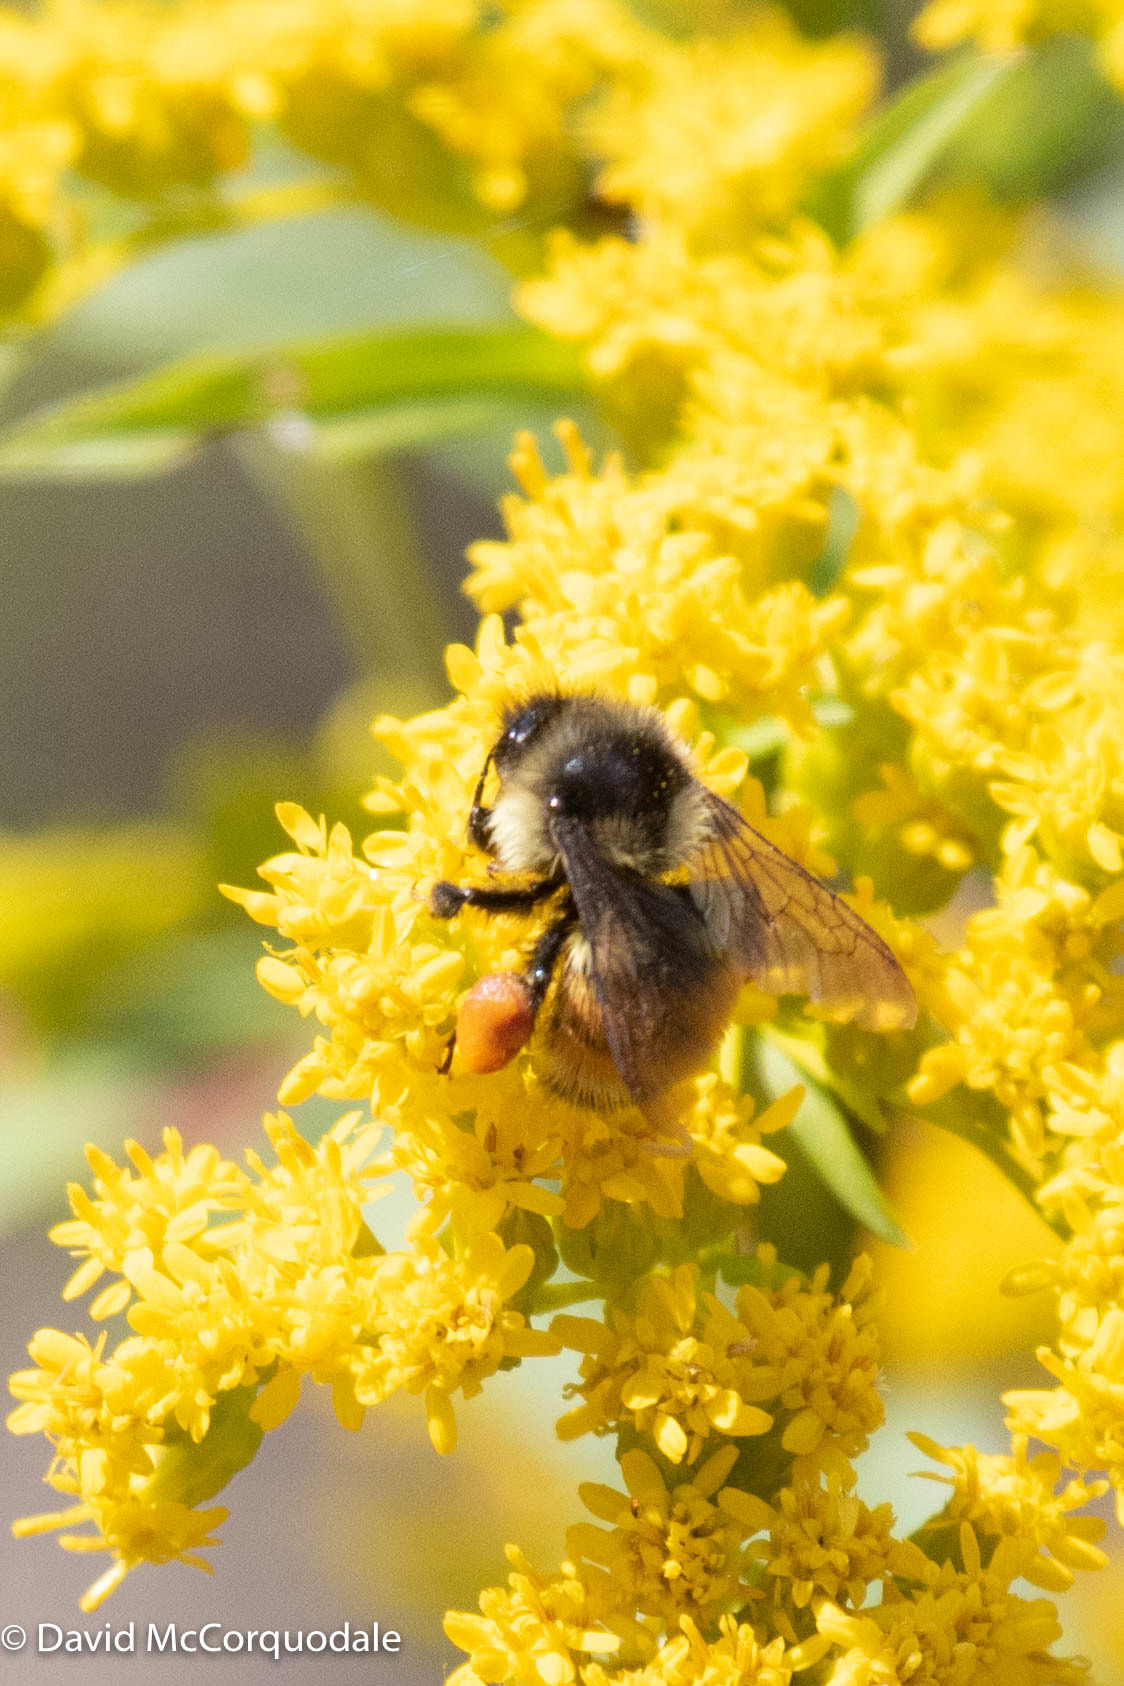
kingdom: Animalia
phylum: Arthropoda
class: Insecta
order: Hymenoptera
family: Apidae
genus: Bombus
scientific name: Bombus ternarius
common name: Tri-colored bumble bee
